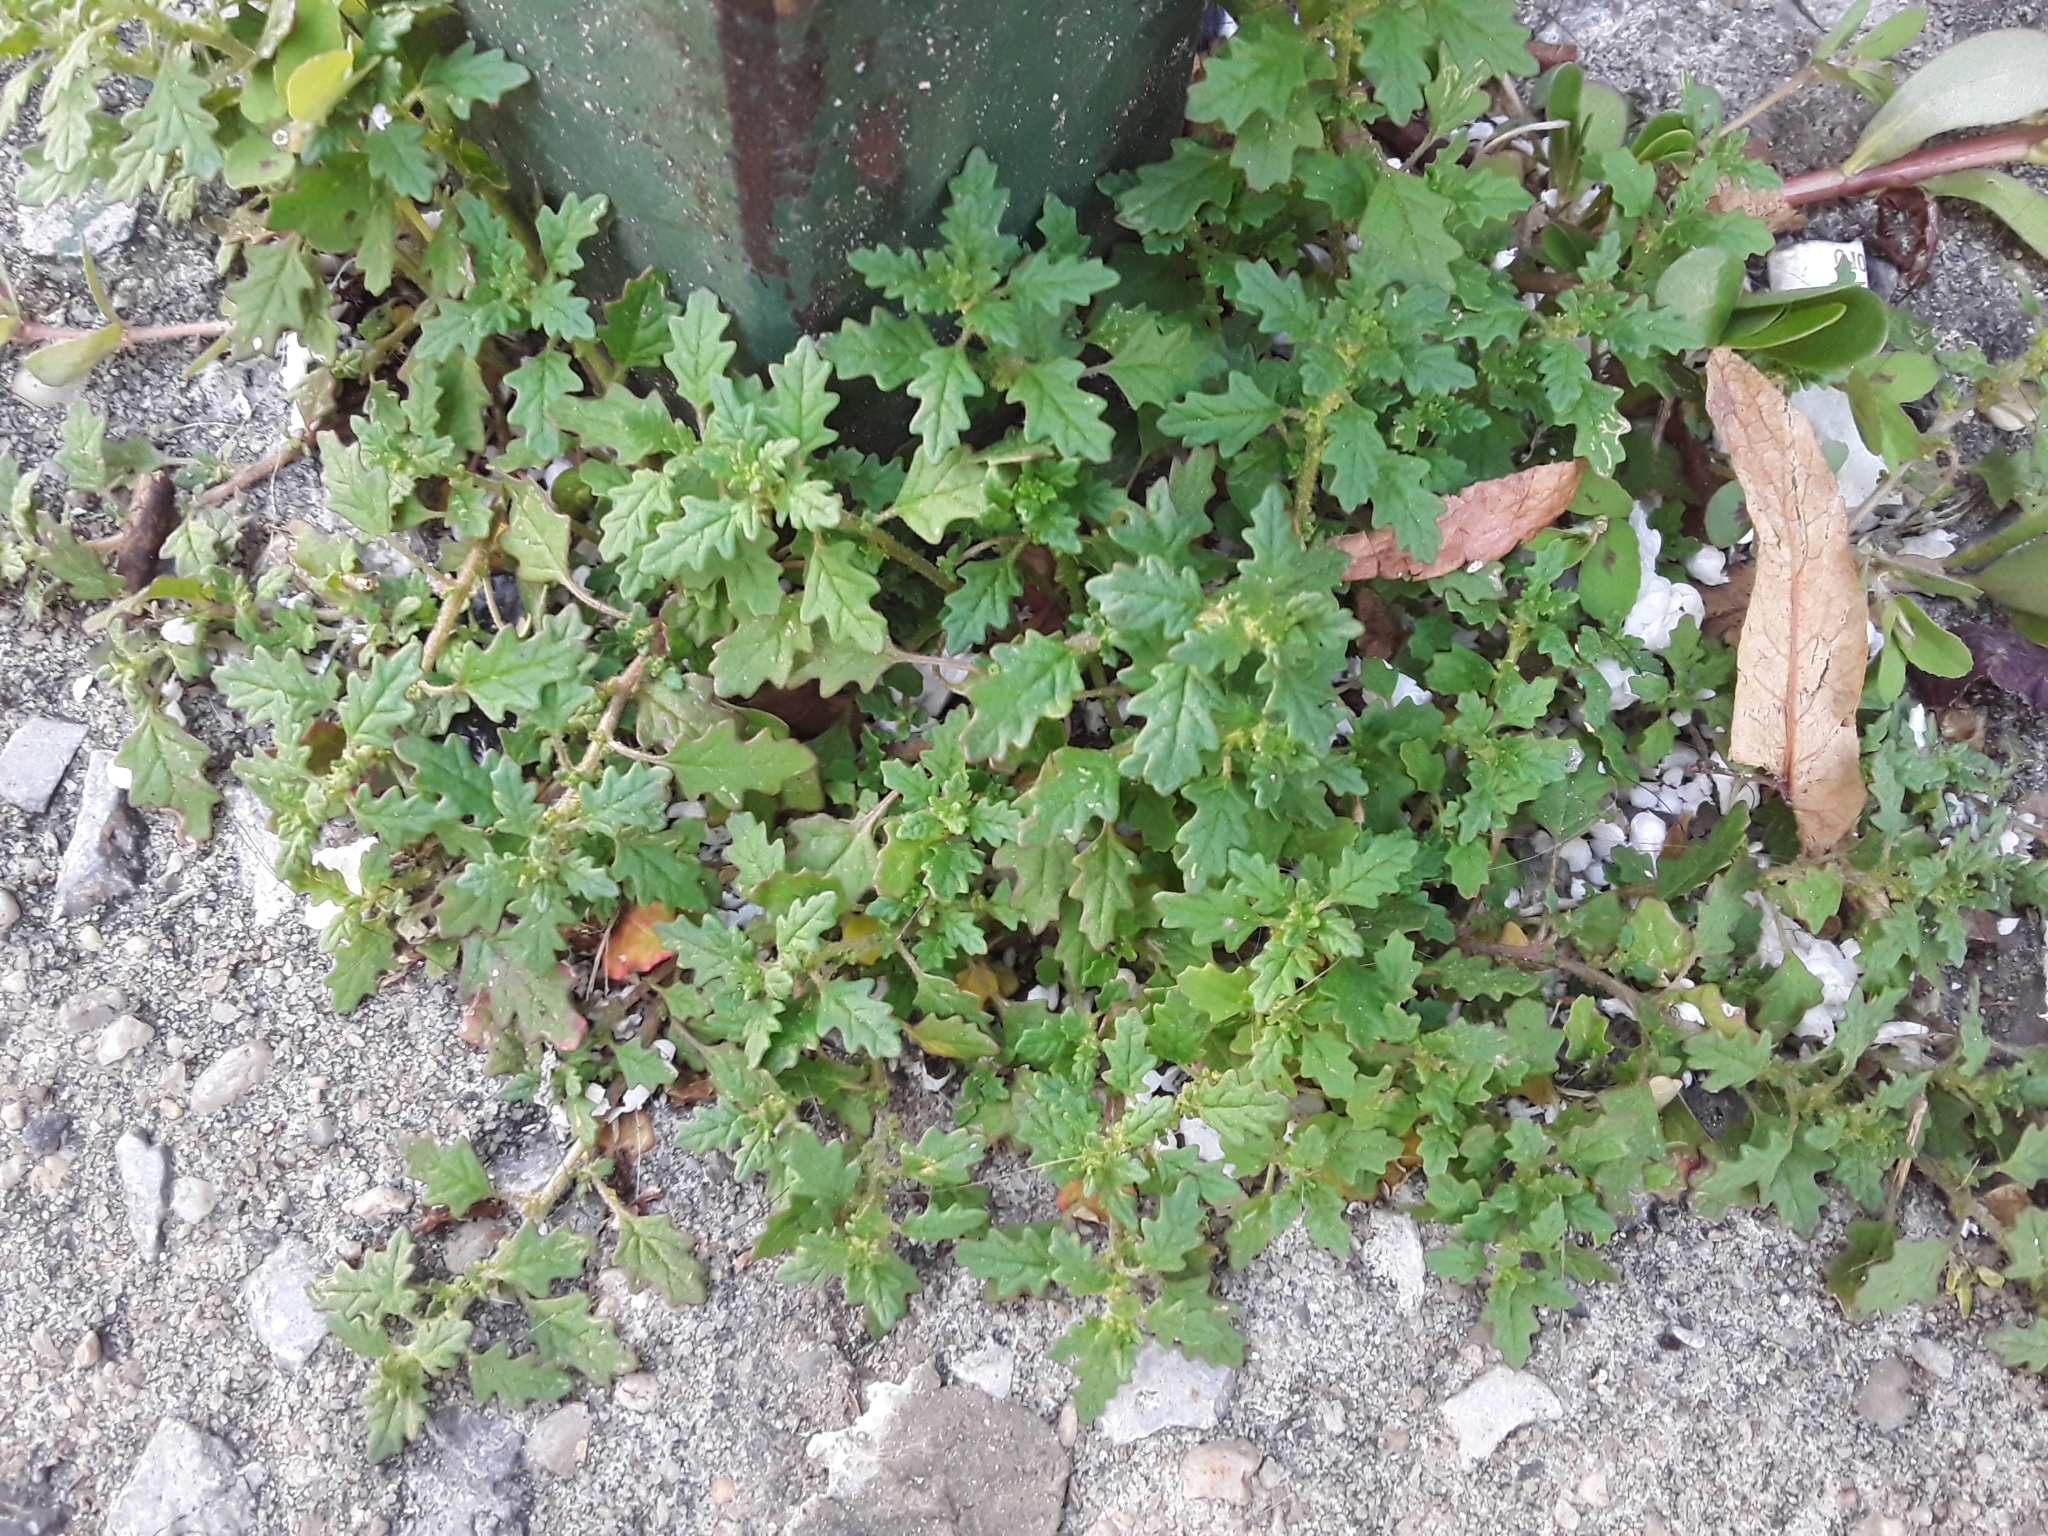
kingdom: Plantae
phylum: Tracheophyta
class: Magnoliopsida
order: Caryophyllales
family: Amaranthaceae
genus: Dysphania
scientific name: Dysphania pumilio
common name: Clammy goosefoot
